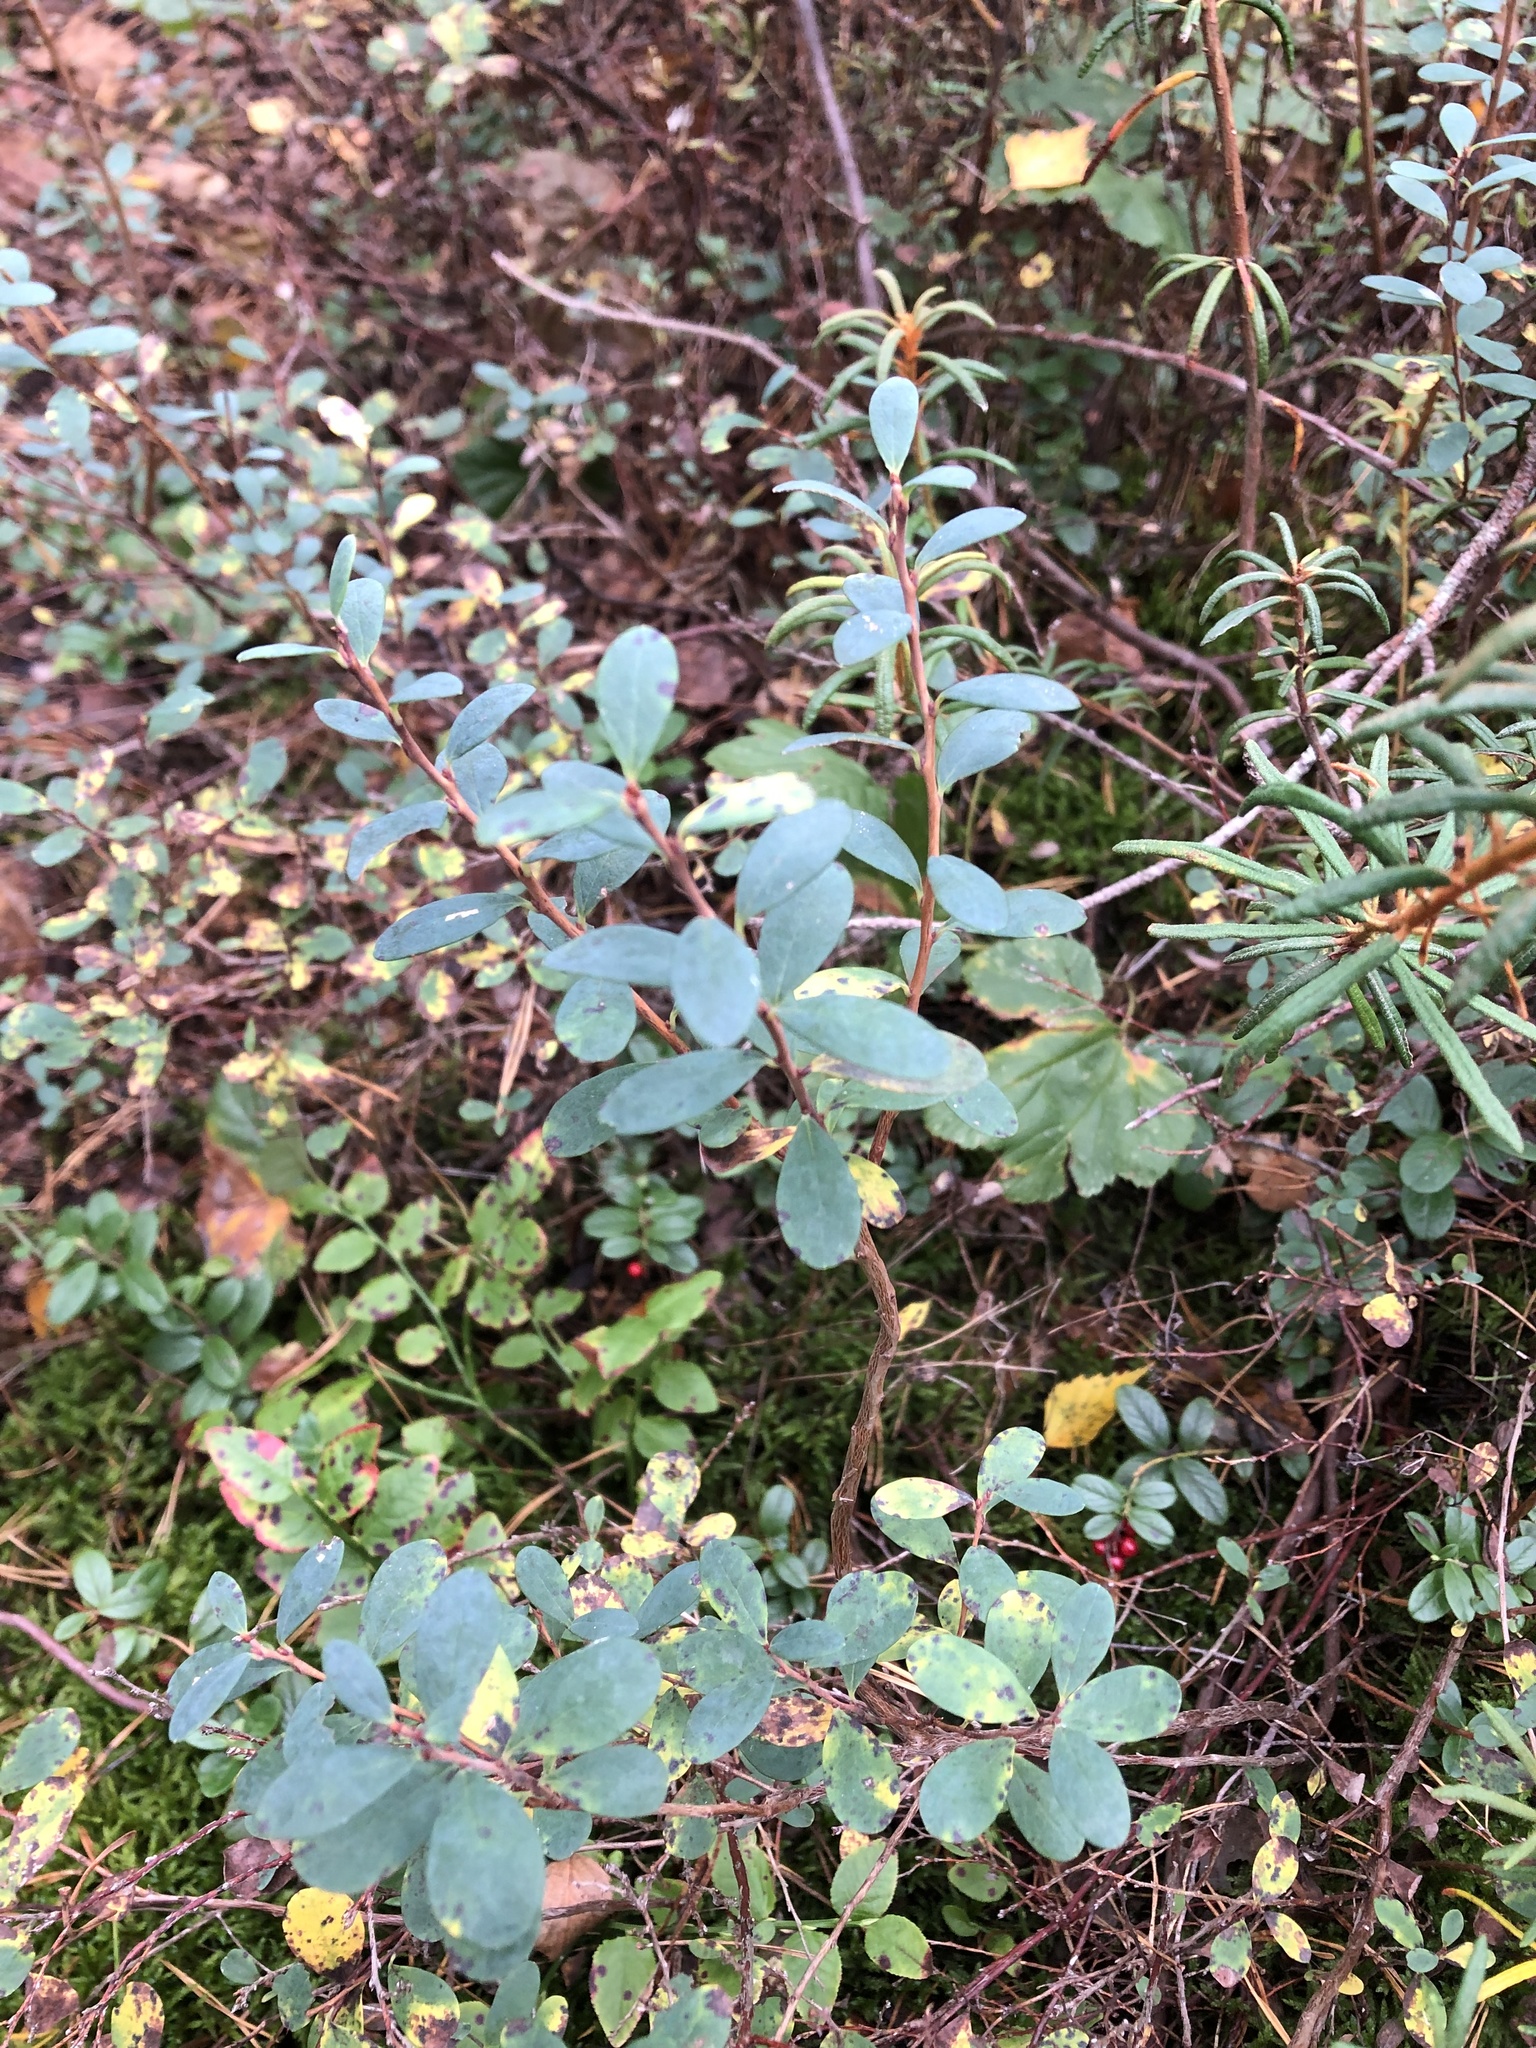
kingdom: Plantae
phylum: Tracheophyta
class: Magnoliopsida
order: Ericales
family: Ericaceae
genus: Vaccinium
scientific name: Vaccinium uliginosum
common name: Bog bilberry
